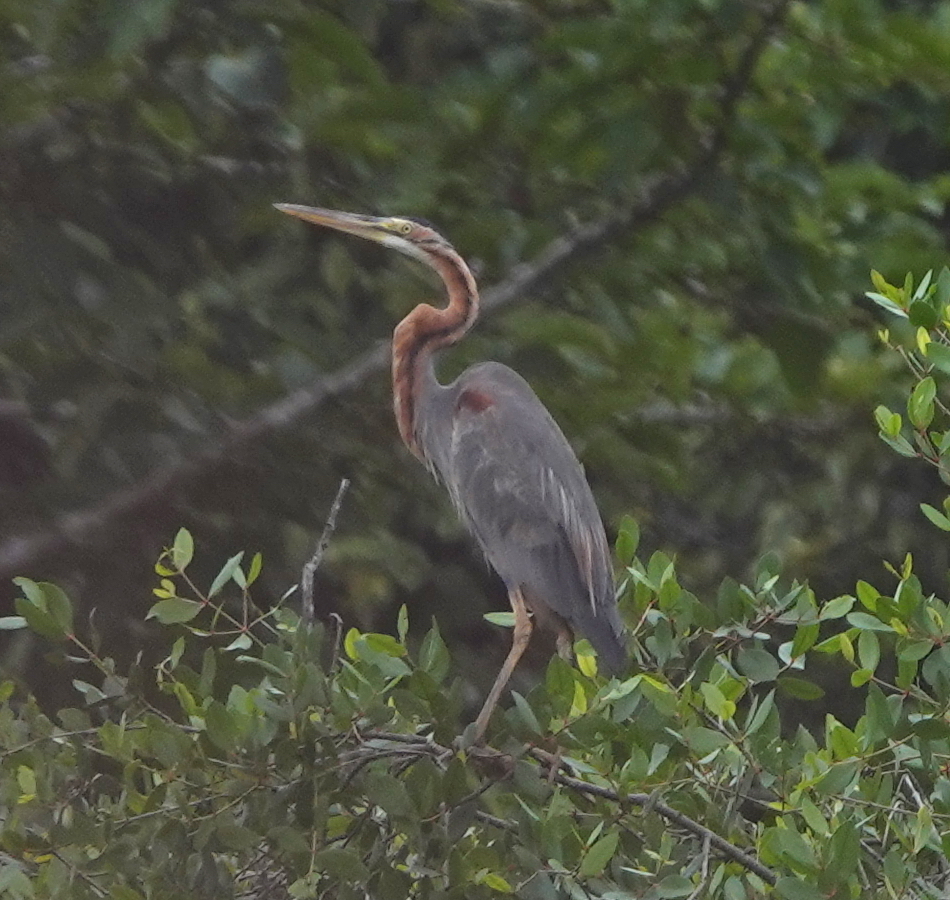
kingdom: Animalia
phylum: Chordata
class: Aves
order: Pelecaniformes
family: Ardeidae
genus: Ardea
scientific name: Ardea purpurea
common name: Purple heron
